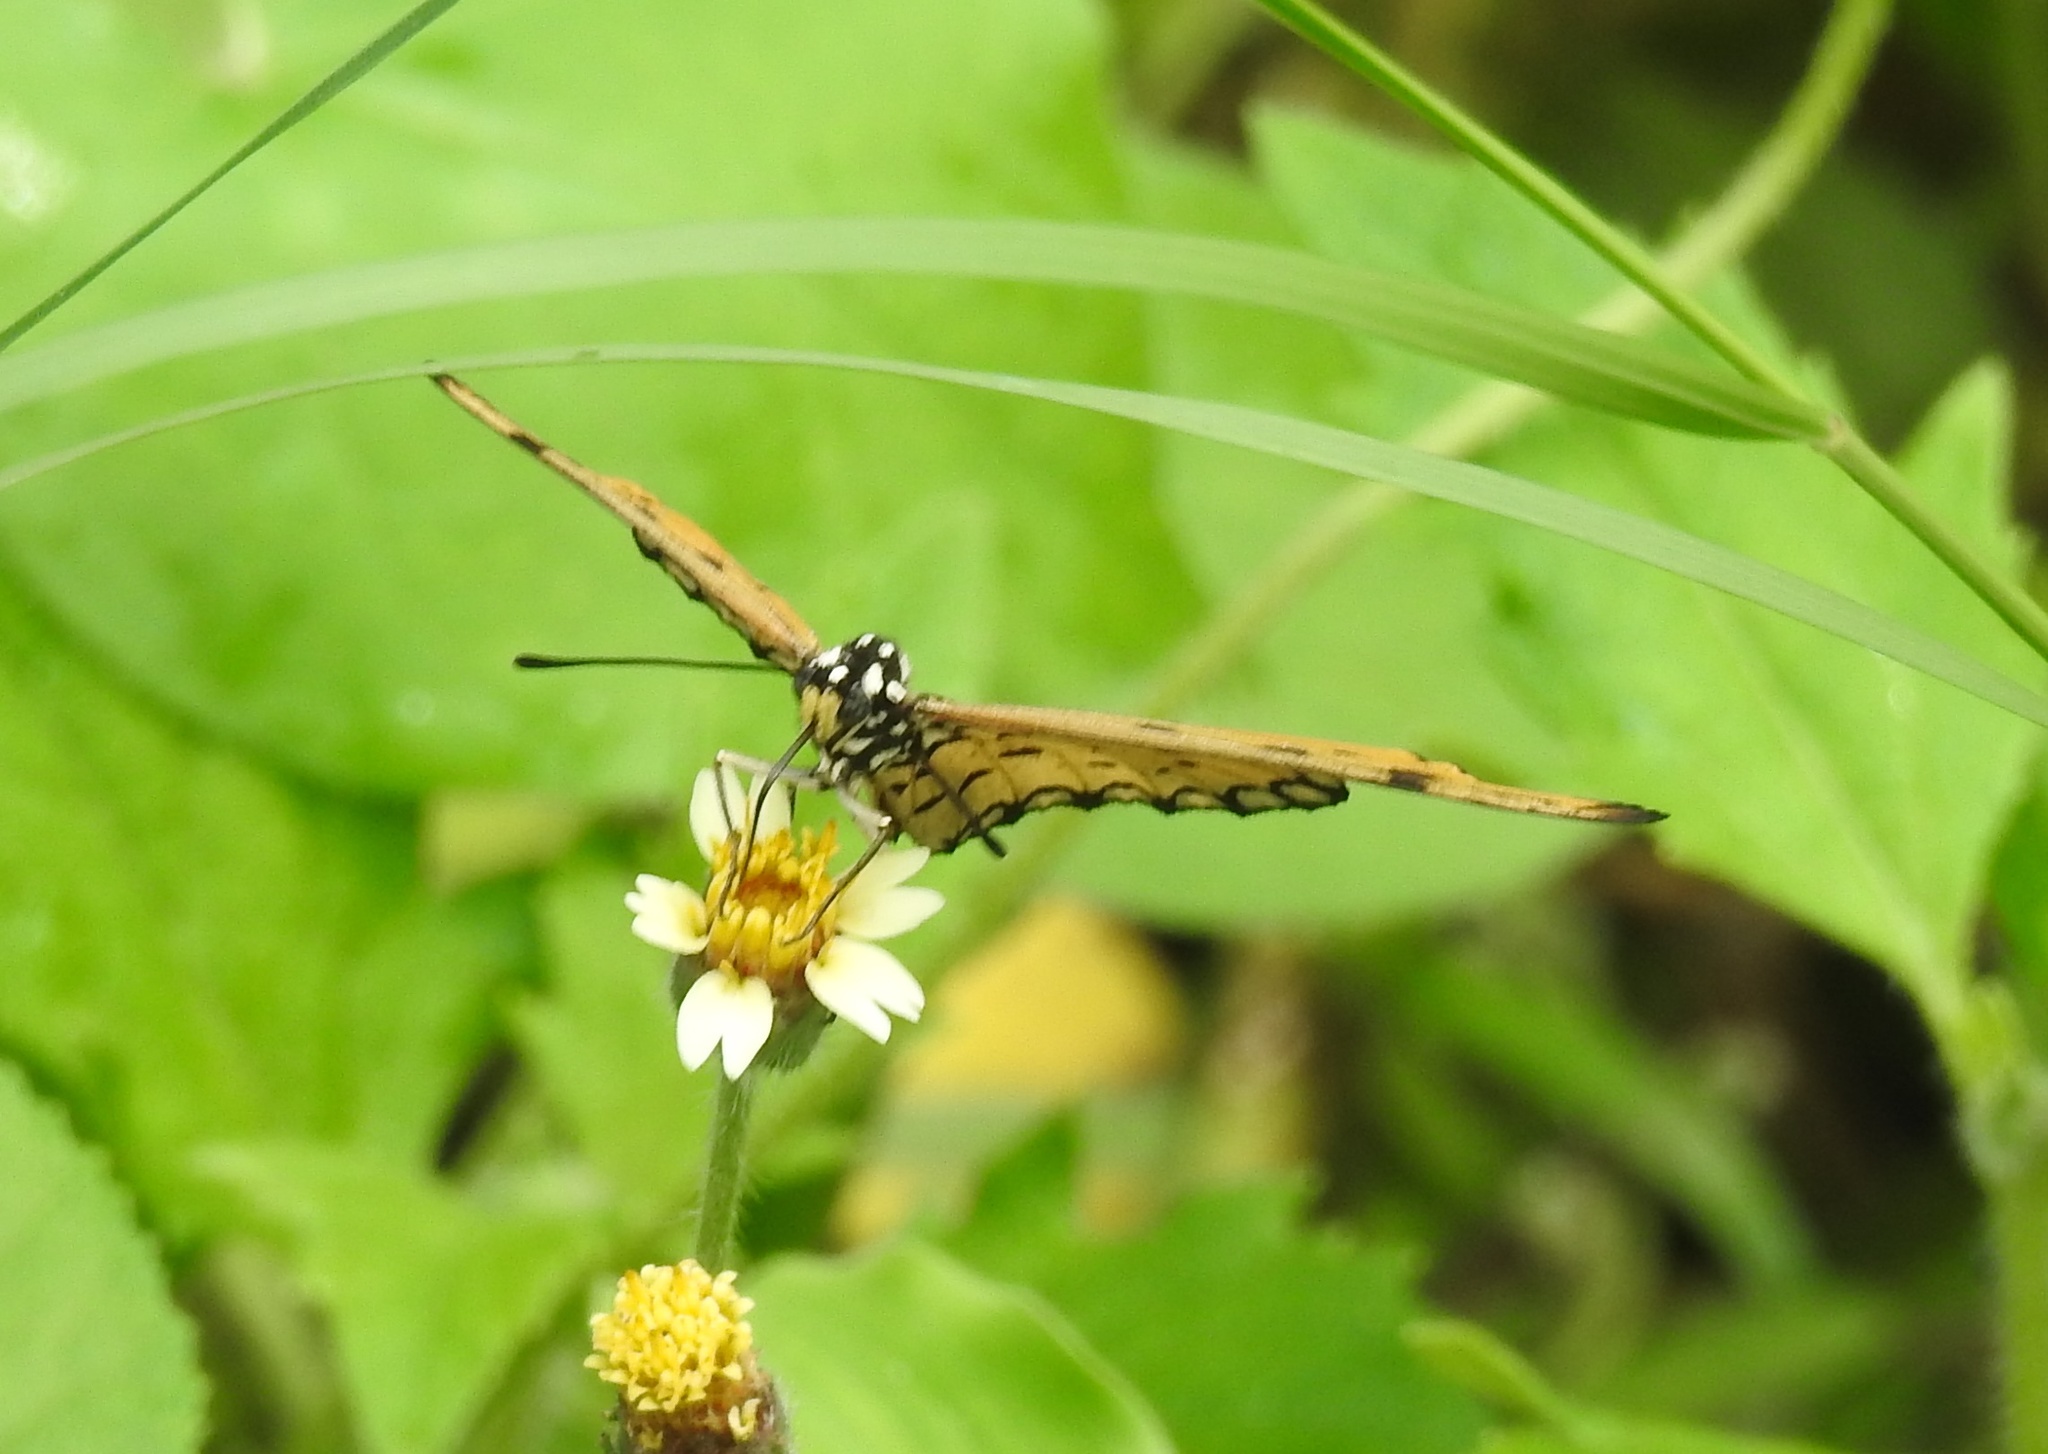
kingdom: Animalia
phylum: Arthropoda
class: Insecta
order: Lepidoptera
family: Nymphalidae
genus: Acraea
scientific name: Acraea terpsicore
